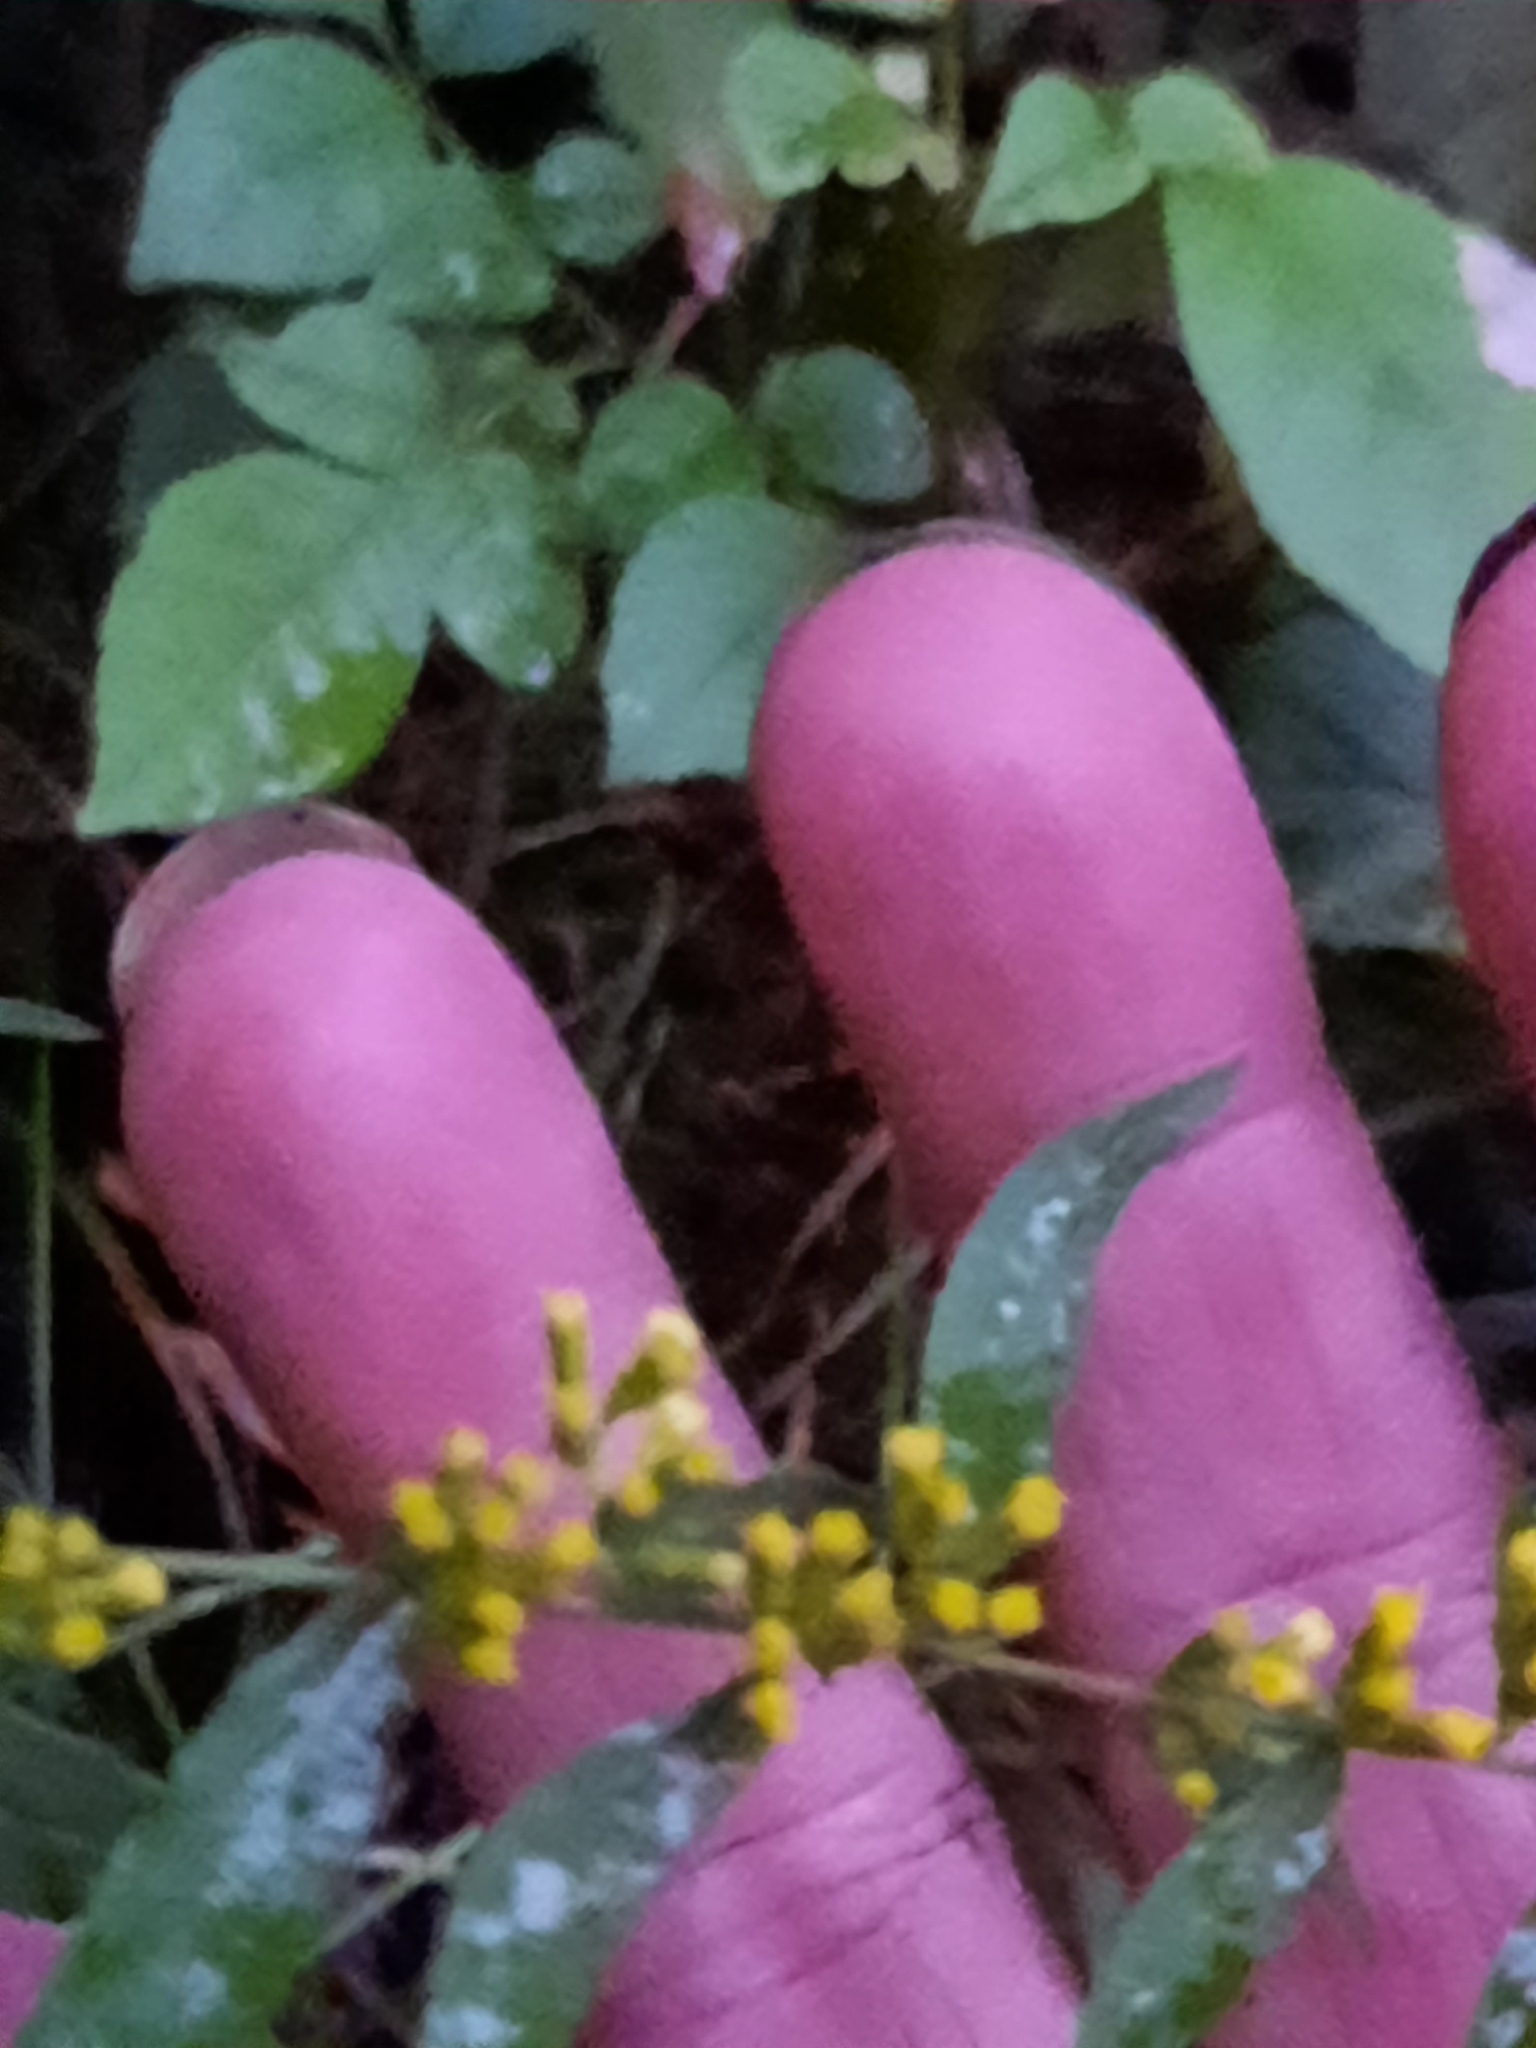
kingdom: Plantae
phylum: Tracheophyta
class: Magnoliopsida
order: Asterales
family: Asteraceae
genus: Solidago
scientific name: Solidago caesia
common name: Woodland goldenrod
